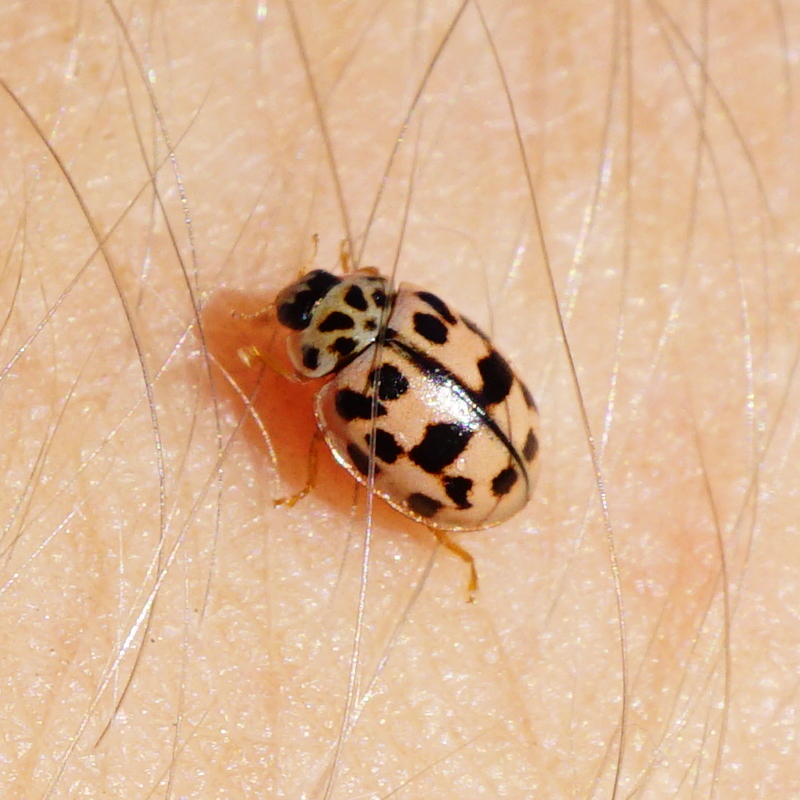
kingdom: Animalia
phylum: Arthropoda
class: Insecta
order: Coleoptera
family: Coccinellidae
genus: Oenopia
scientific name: Oenopia conglobata
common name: Ladybird beetle
